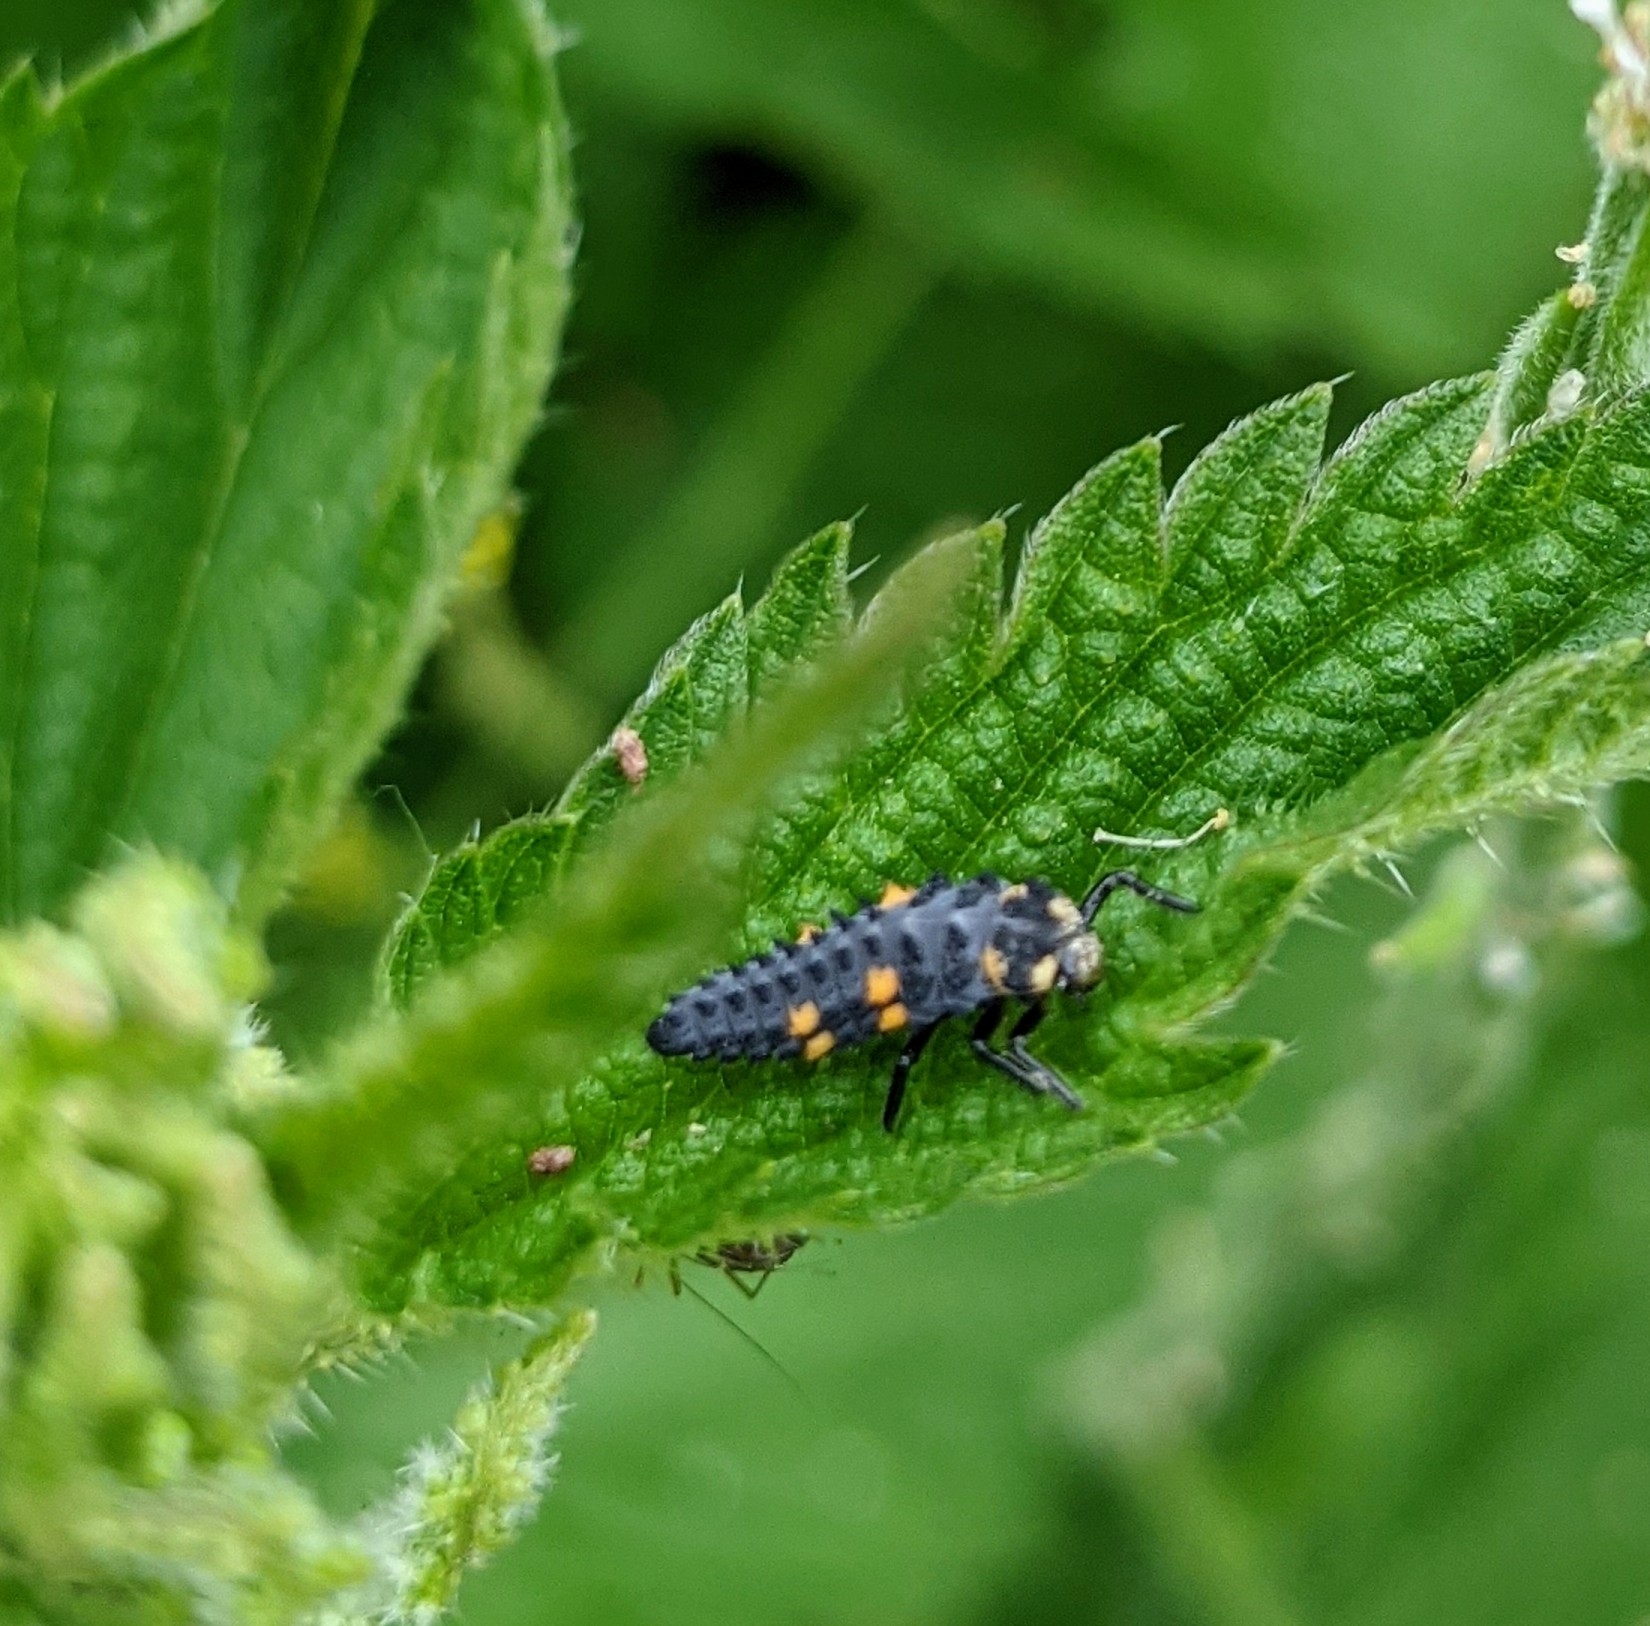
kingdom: Animalia
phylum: Arthropoda
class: Insecta
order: Coleoptera
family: Coccinellidae
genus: Coccinella
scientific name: Coccinella septempunctata
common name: Sevenspotted lady beetle
